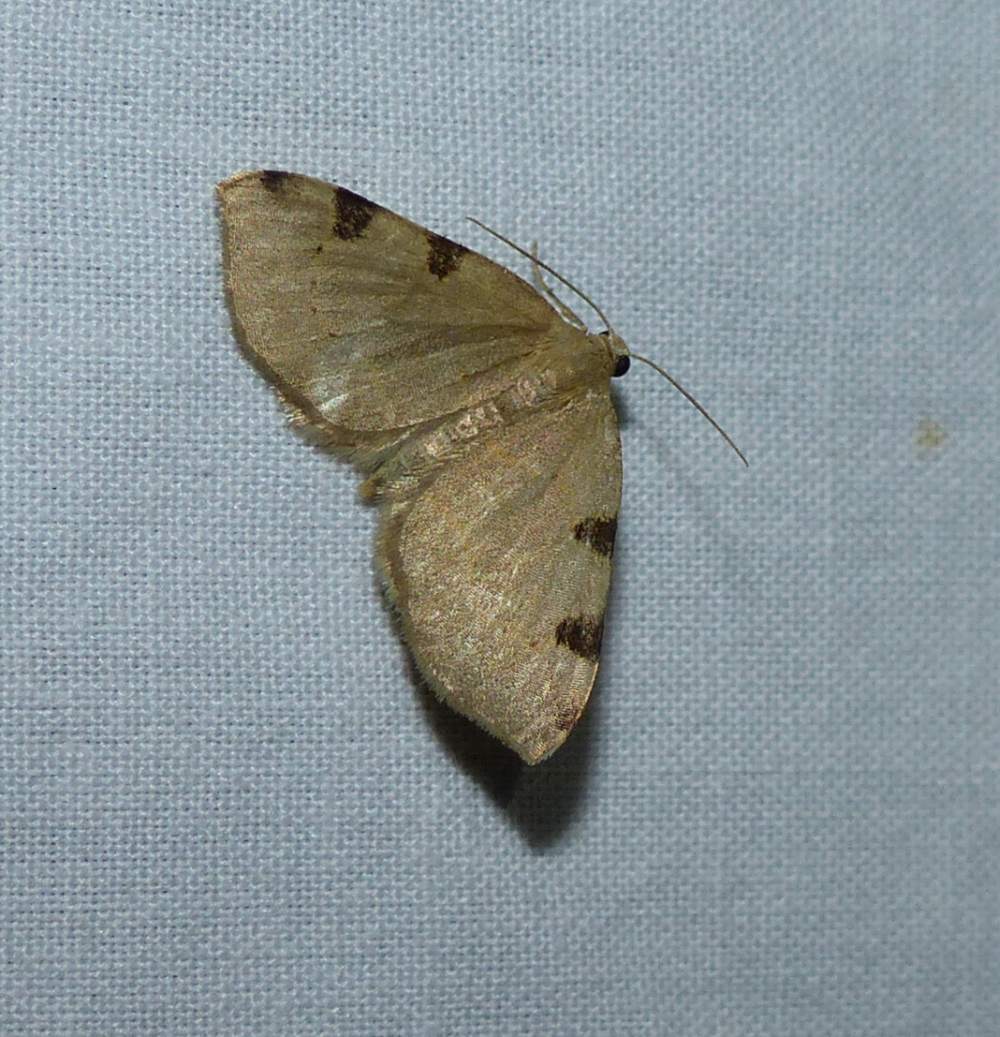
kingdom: Animalia
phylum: Arthropoda
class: Insecta
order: Lepidoptera
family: Geometridae
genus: Heterophleps
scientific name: Heterophleps triguttaria
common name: Three-spotted fillip
